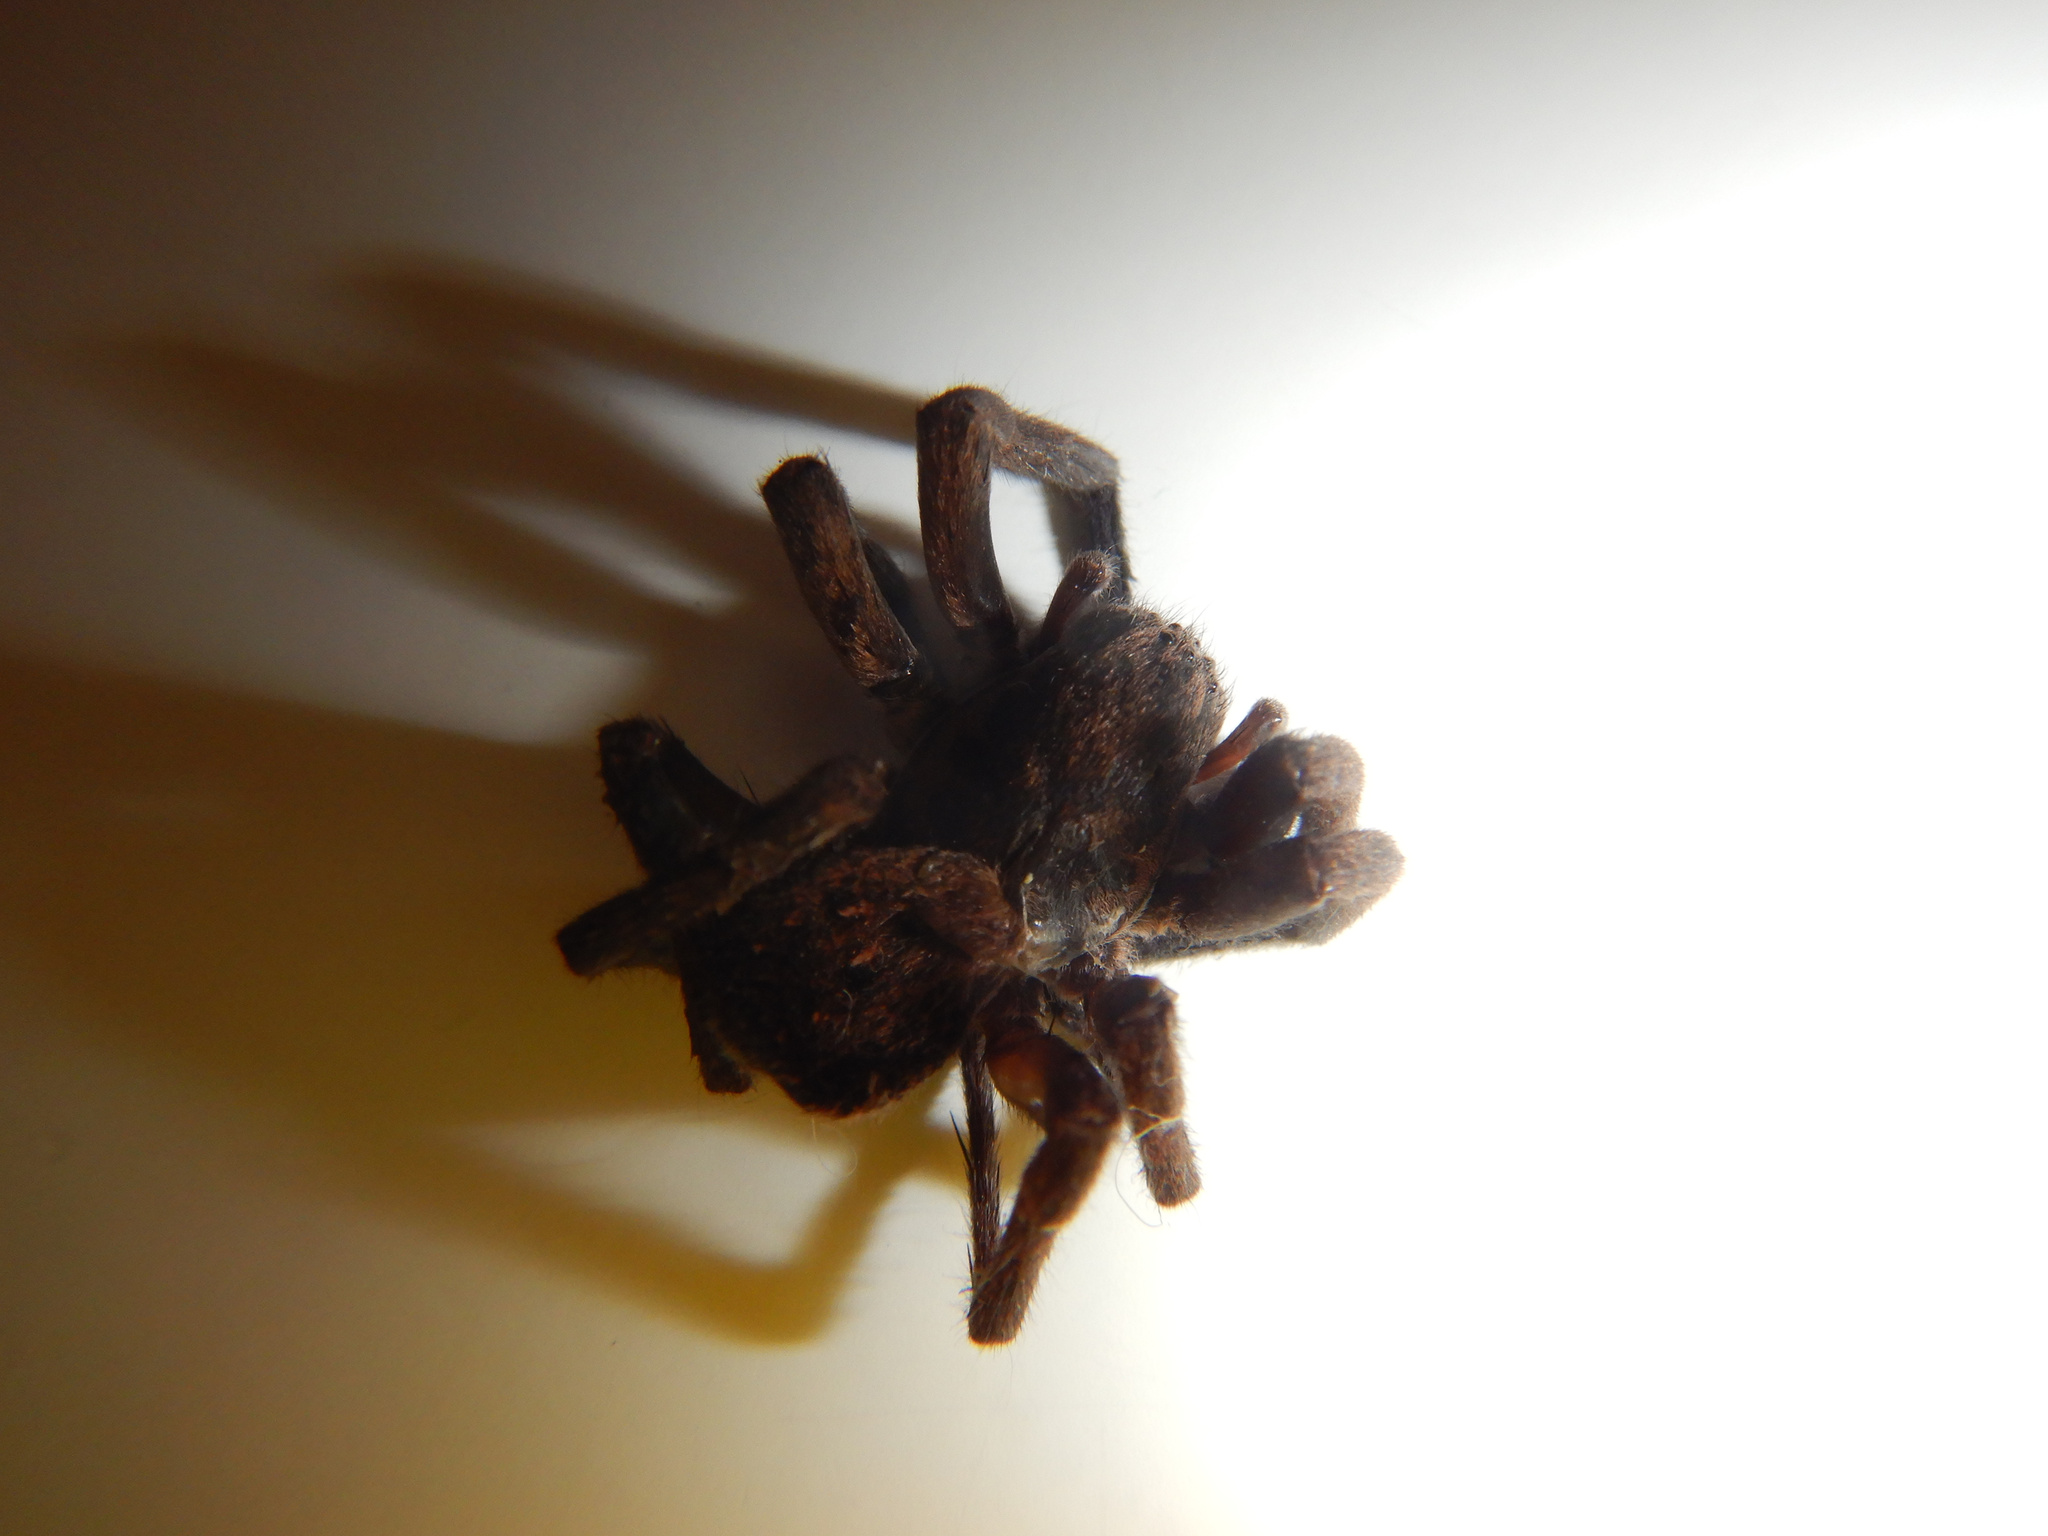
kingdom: Animalia
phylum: Arthropoda
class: Arachnida
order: Araneae
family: Zoropsidae
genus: Uliodon
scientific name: Uliodon
